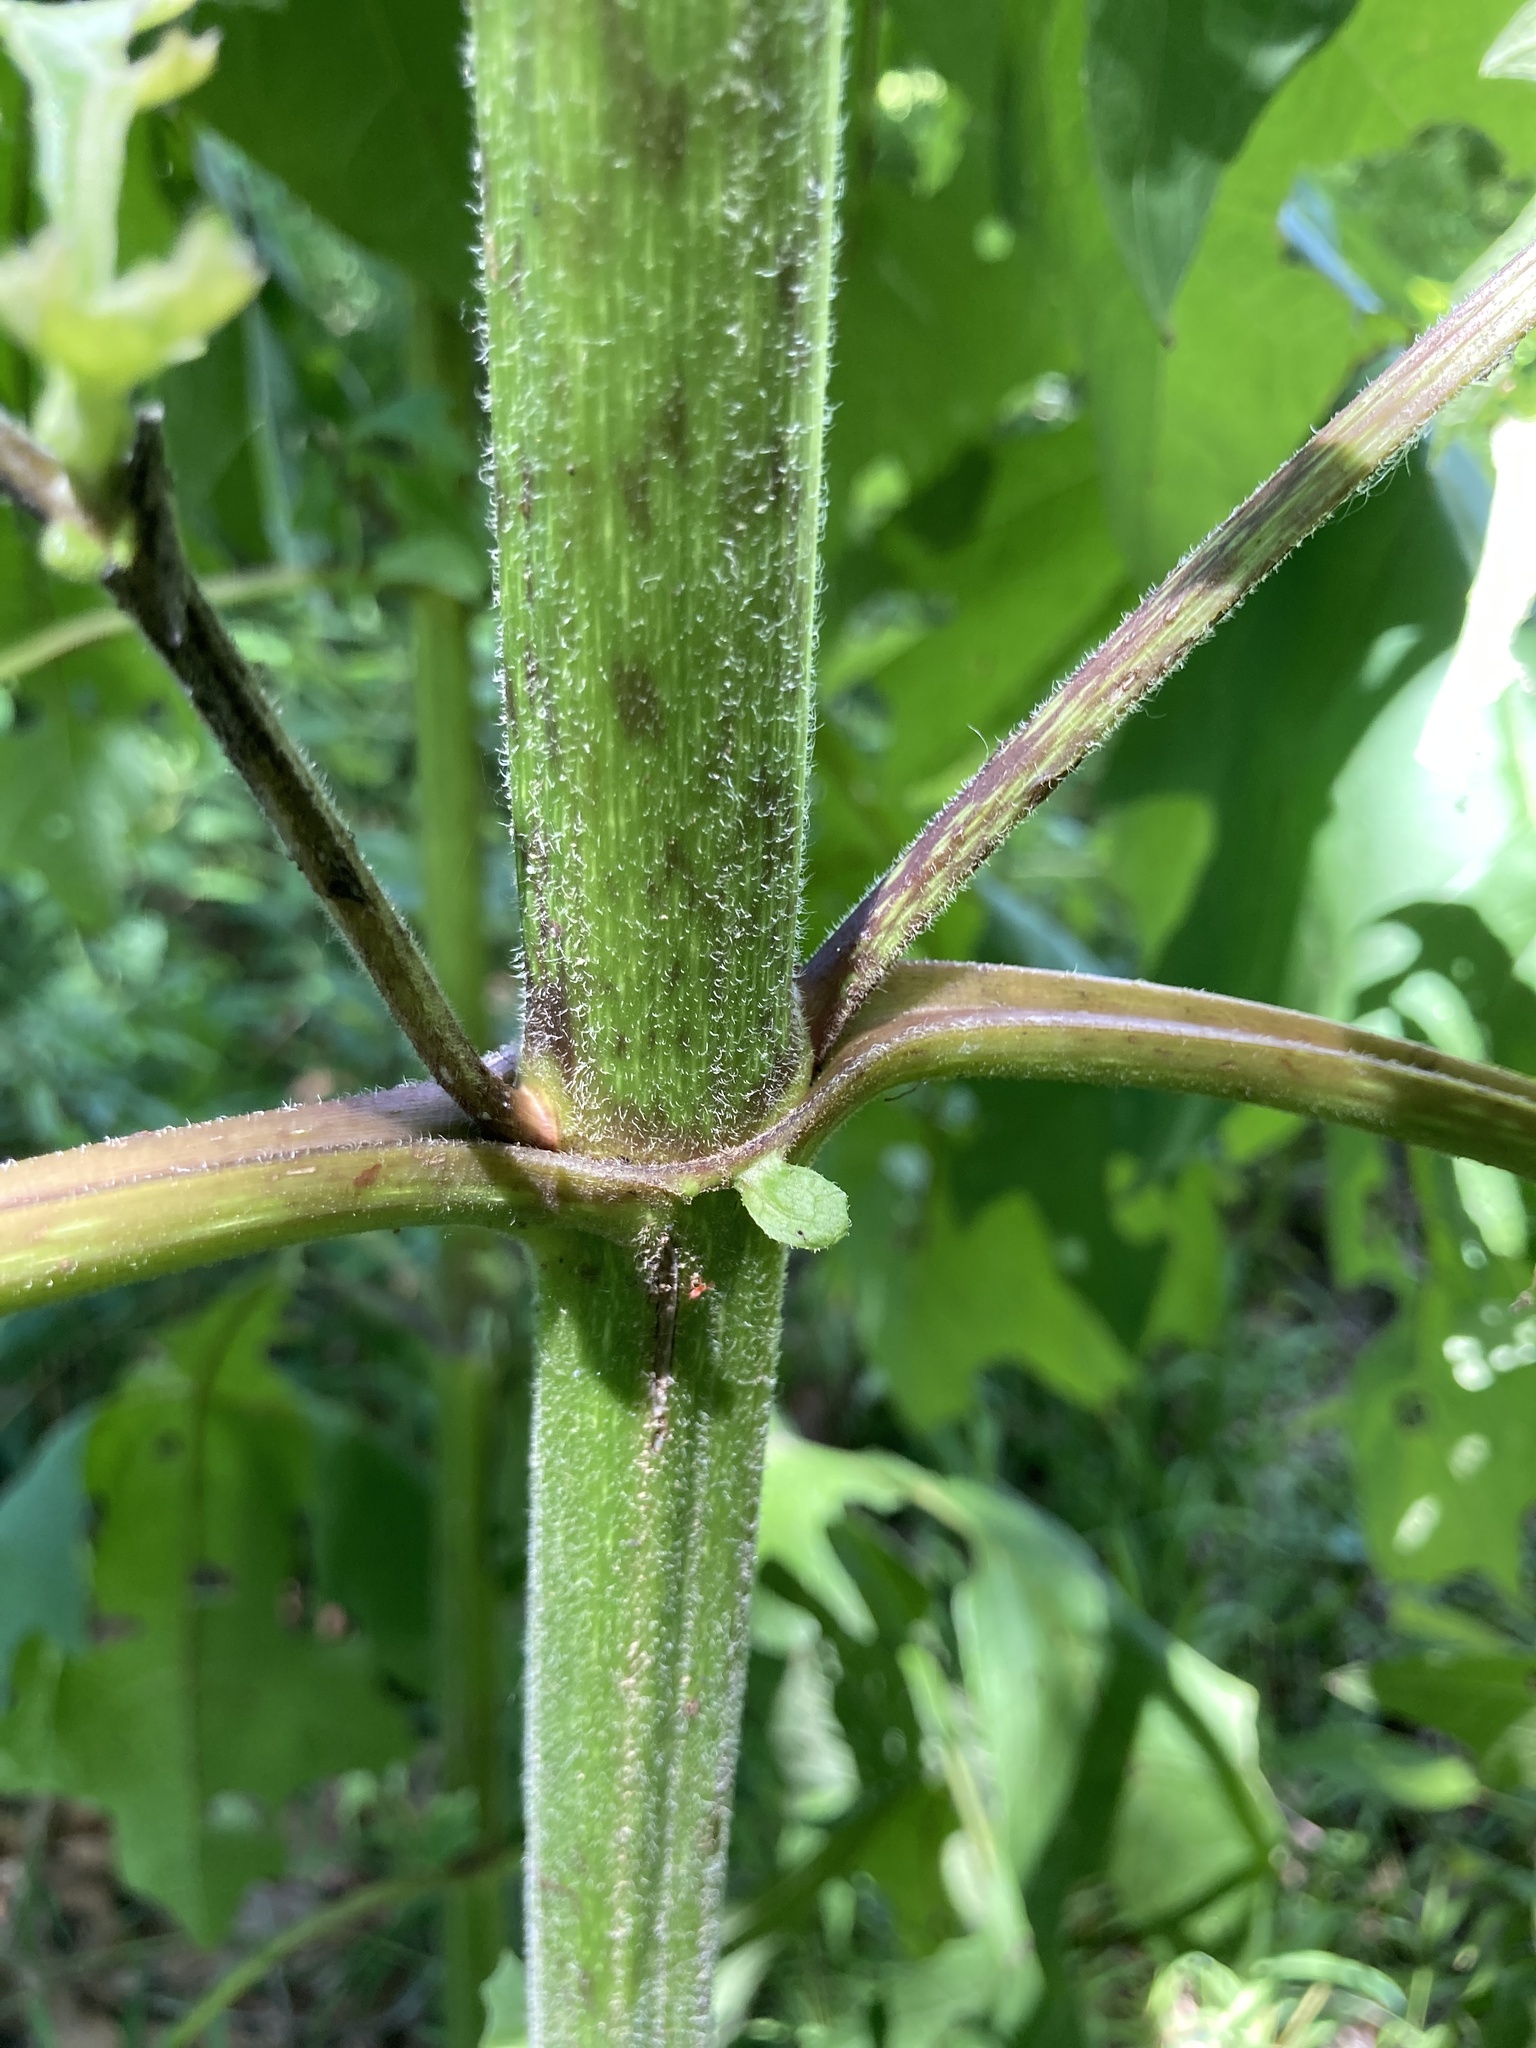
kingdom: Plantae
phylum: Tracheophyta
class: Magnoliopsida
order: Asterales
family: Asteraceae
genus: Smallanthus
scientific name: Smallanthus uvedalia
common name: Bear's-foot
